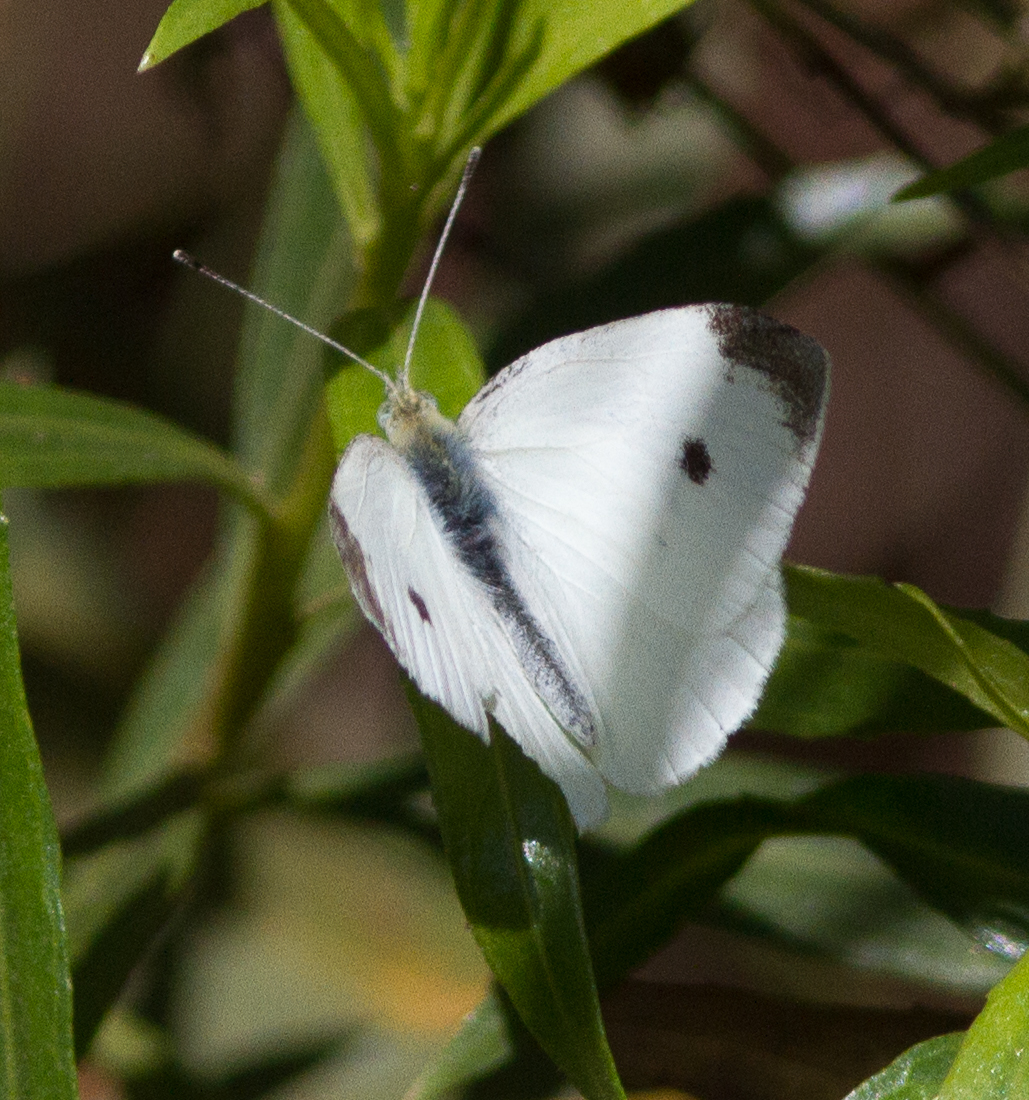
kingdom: Animalia
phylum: Arthropoda
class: Insecta
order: Lepidoptera
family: Pieridae
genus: Pieris
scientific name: Pieris rapae
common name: Small white
